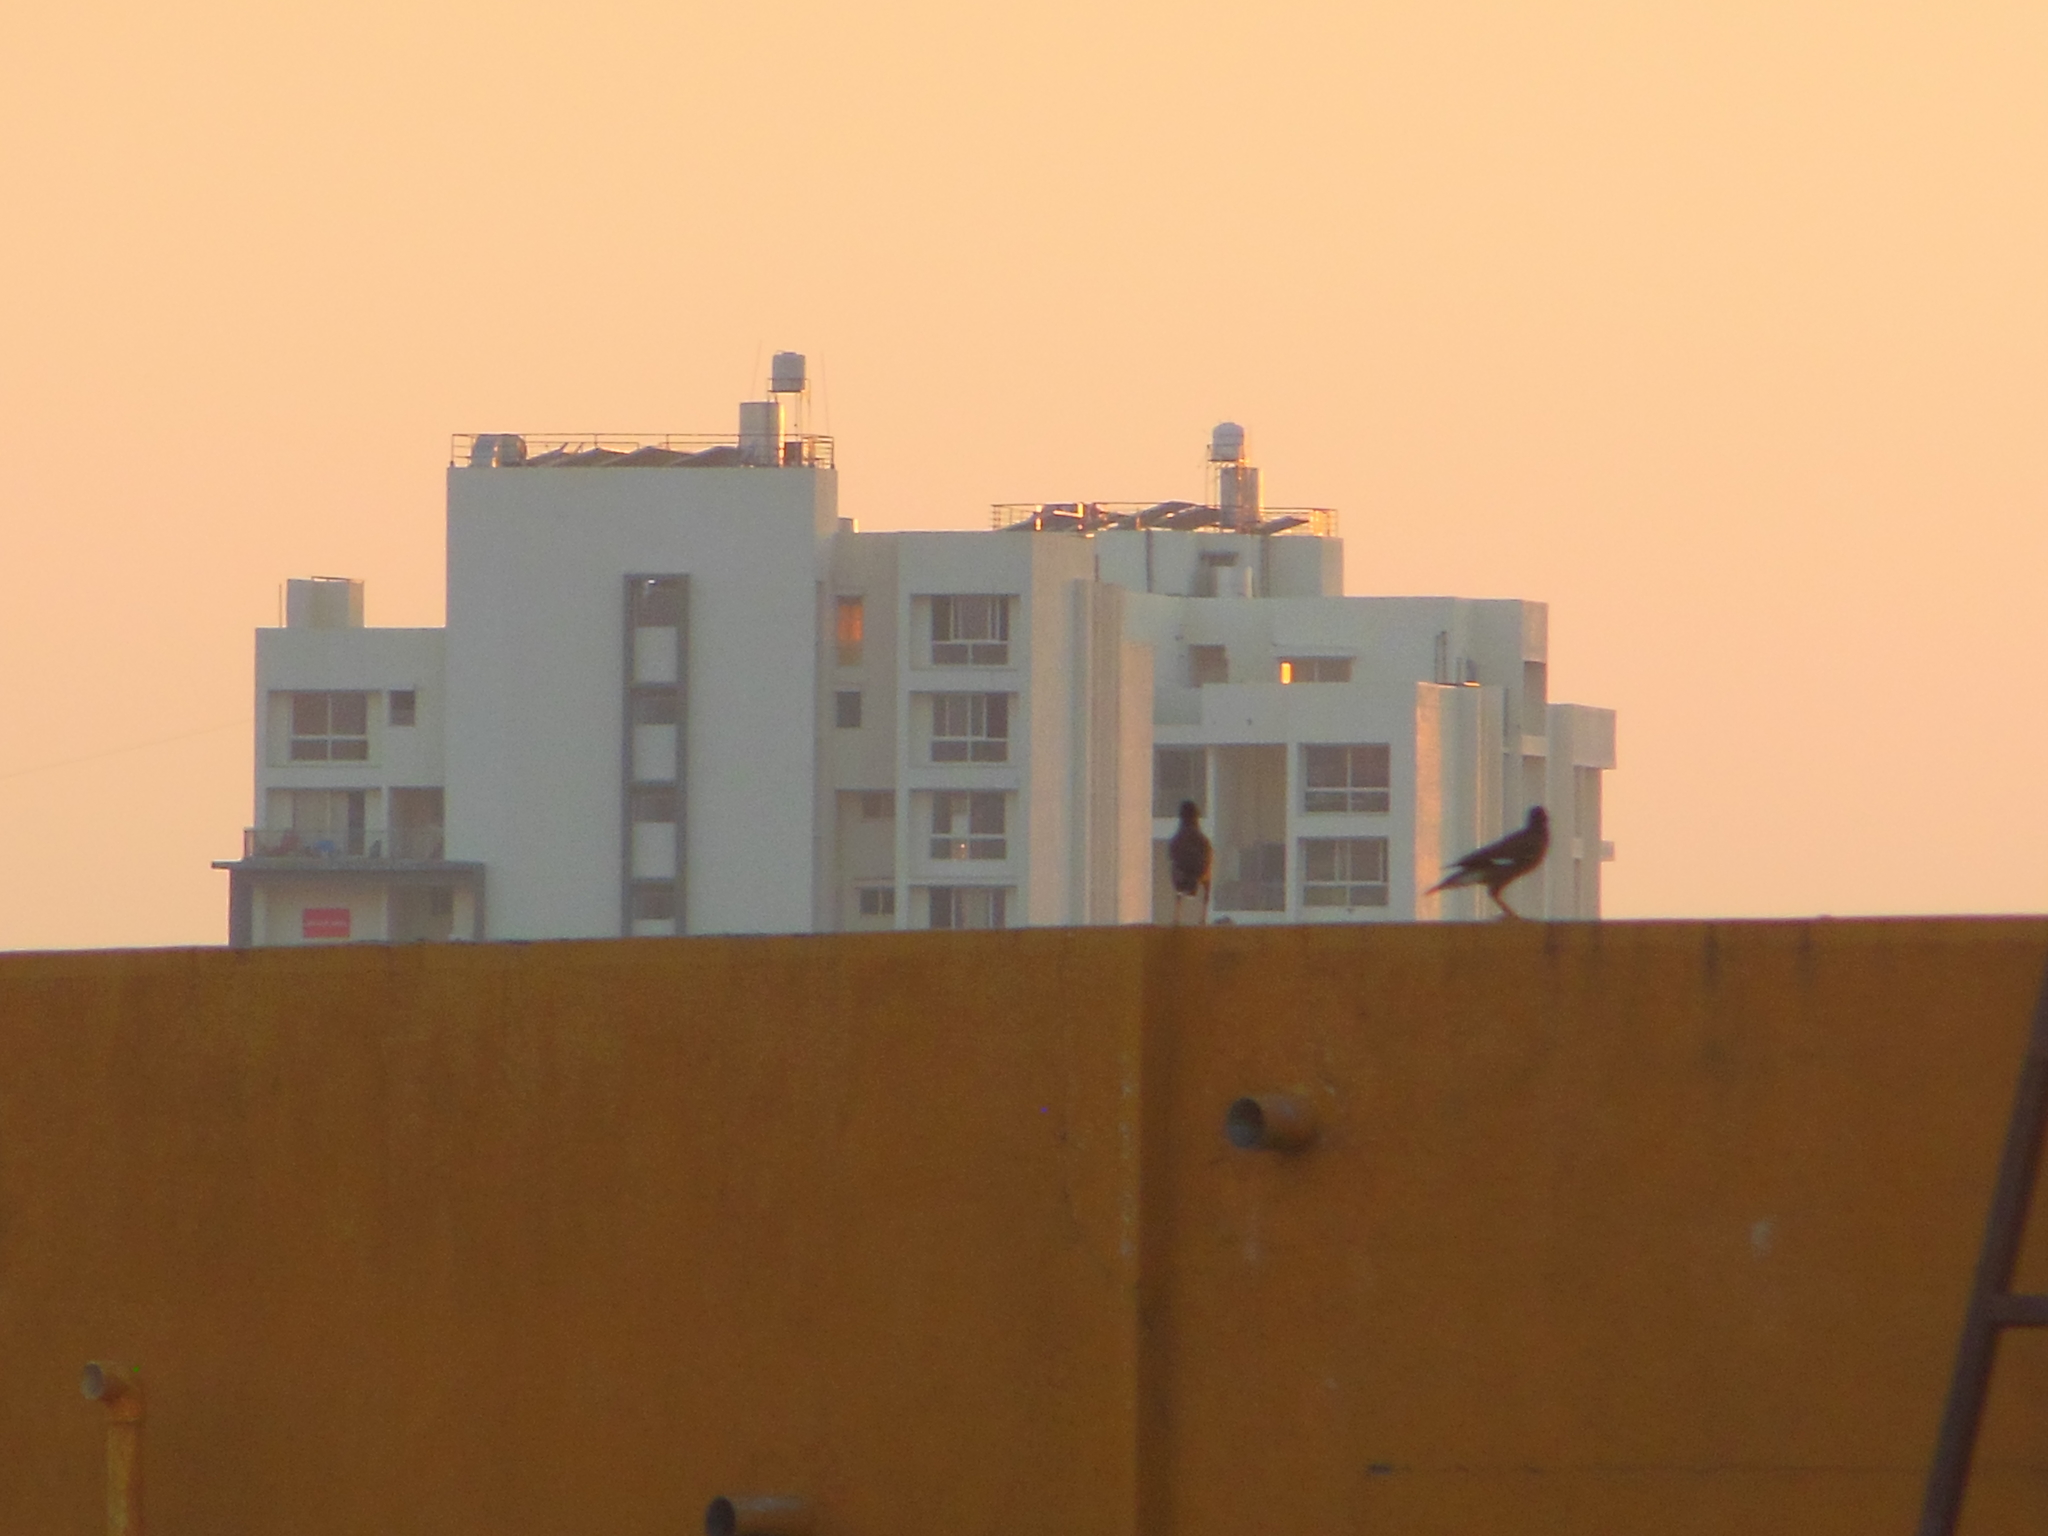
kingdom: Animalia
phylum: Chordata
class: Aves
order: Passeriformes
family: Sturnidae
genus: Acridotheres
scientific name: Acridotheres tristis
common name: Common myna
